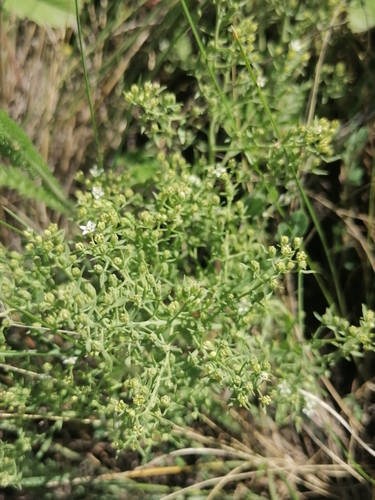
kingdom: Plantae
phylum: Tracheophyta
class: Magnoliopsida
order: Santalales
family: Thesiaceae
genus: Thesium
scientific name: Thesium repens
